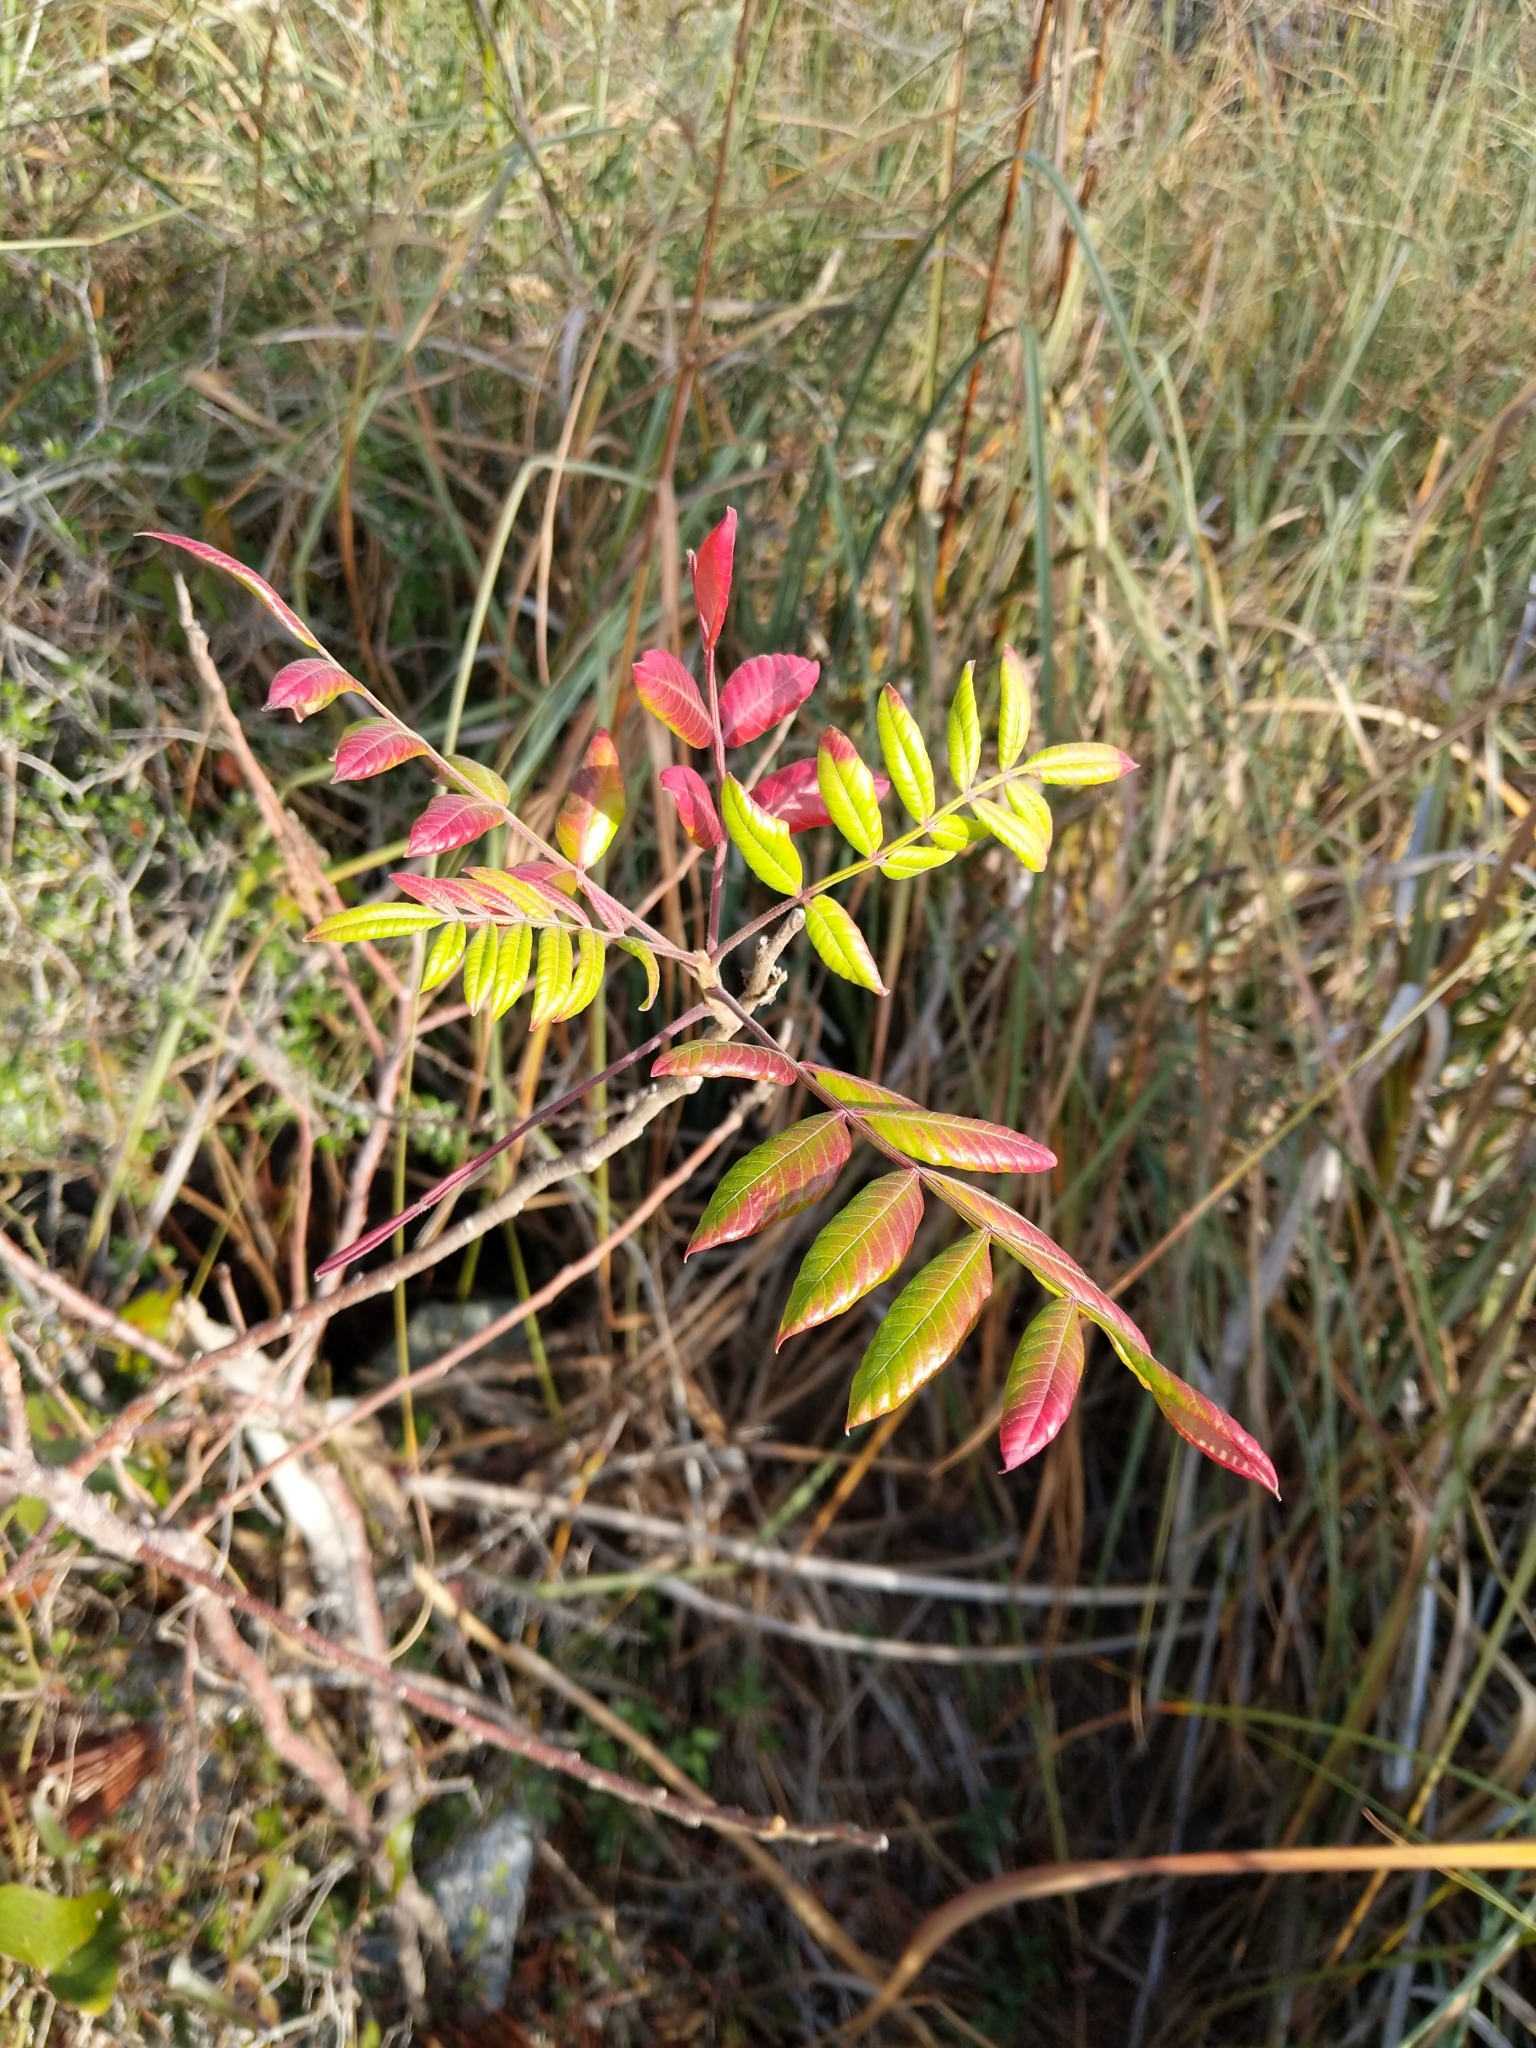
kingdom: Plantae
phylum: Tracheophyta
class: Magnoliopsida
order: Sapindales
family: Anacardiaceae
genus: Rhus
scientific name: Rhus copallina
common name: Shining sumac
